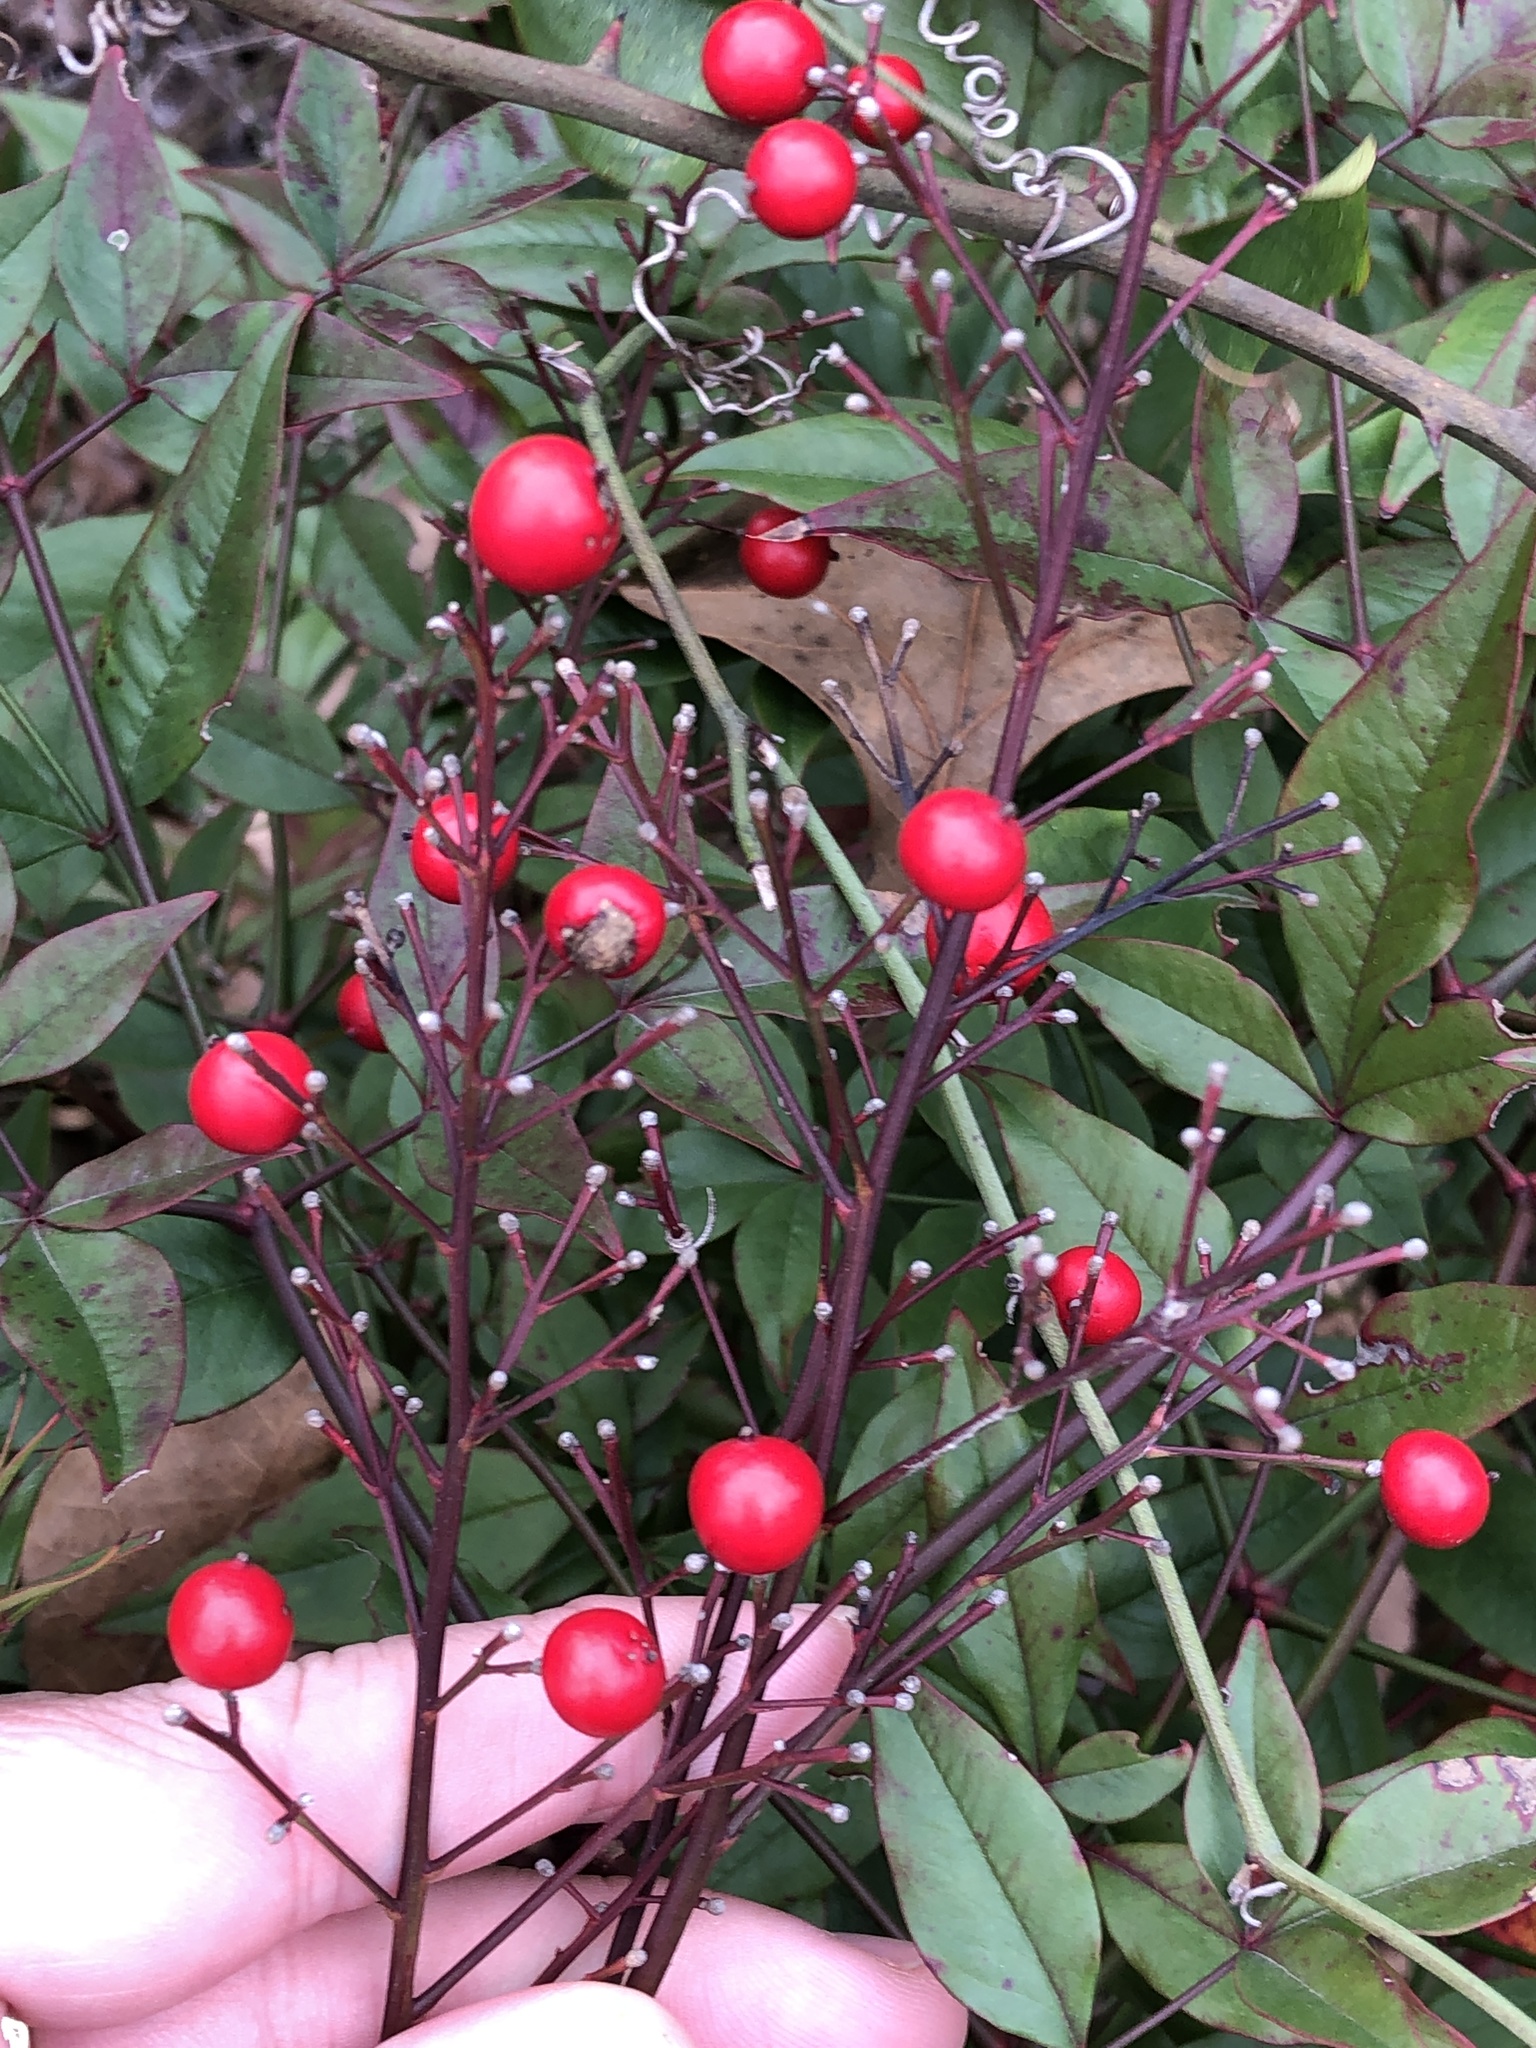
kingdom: Plantae
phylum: Tracheophyta
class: Magnoliopsida
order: Ranunculales
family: Berberidaceae
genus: Nandina
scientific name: Nandina domestica
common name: Sacred bamboo
